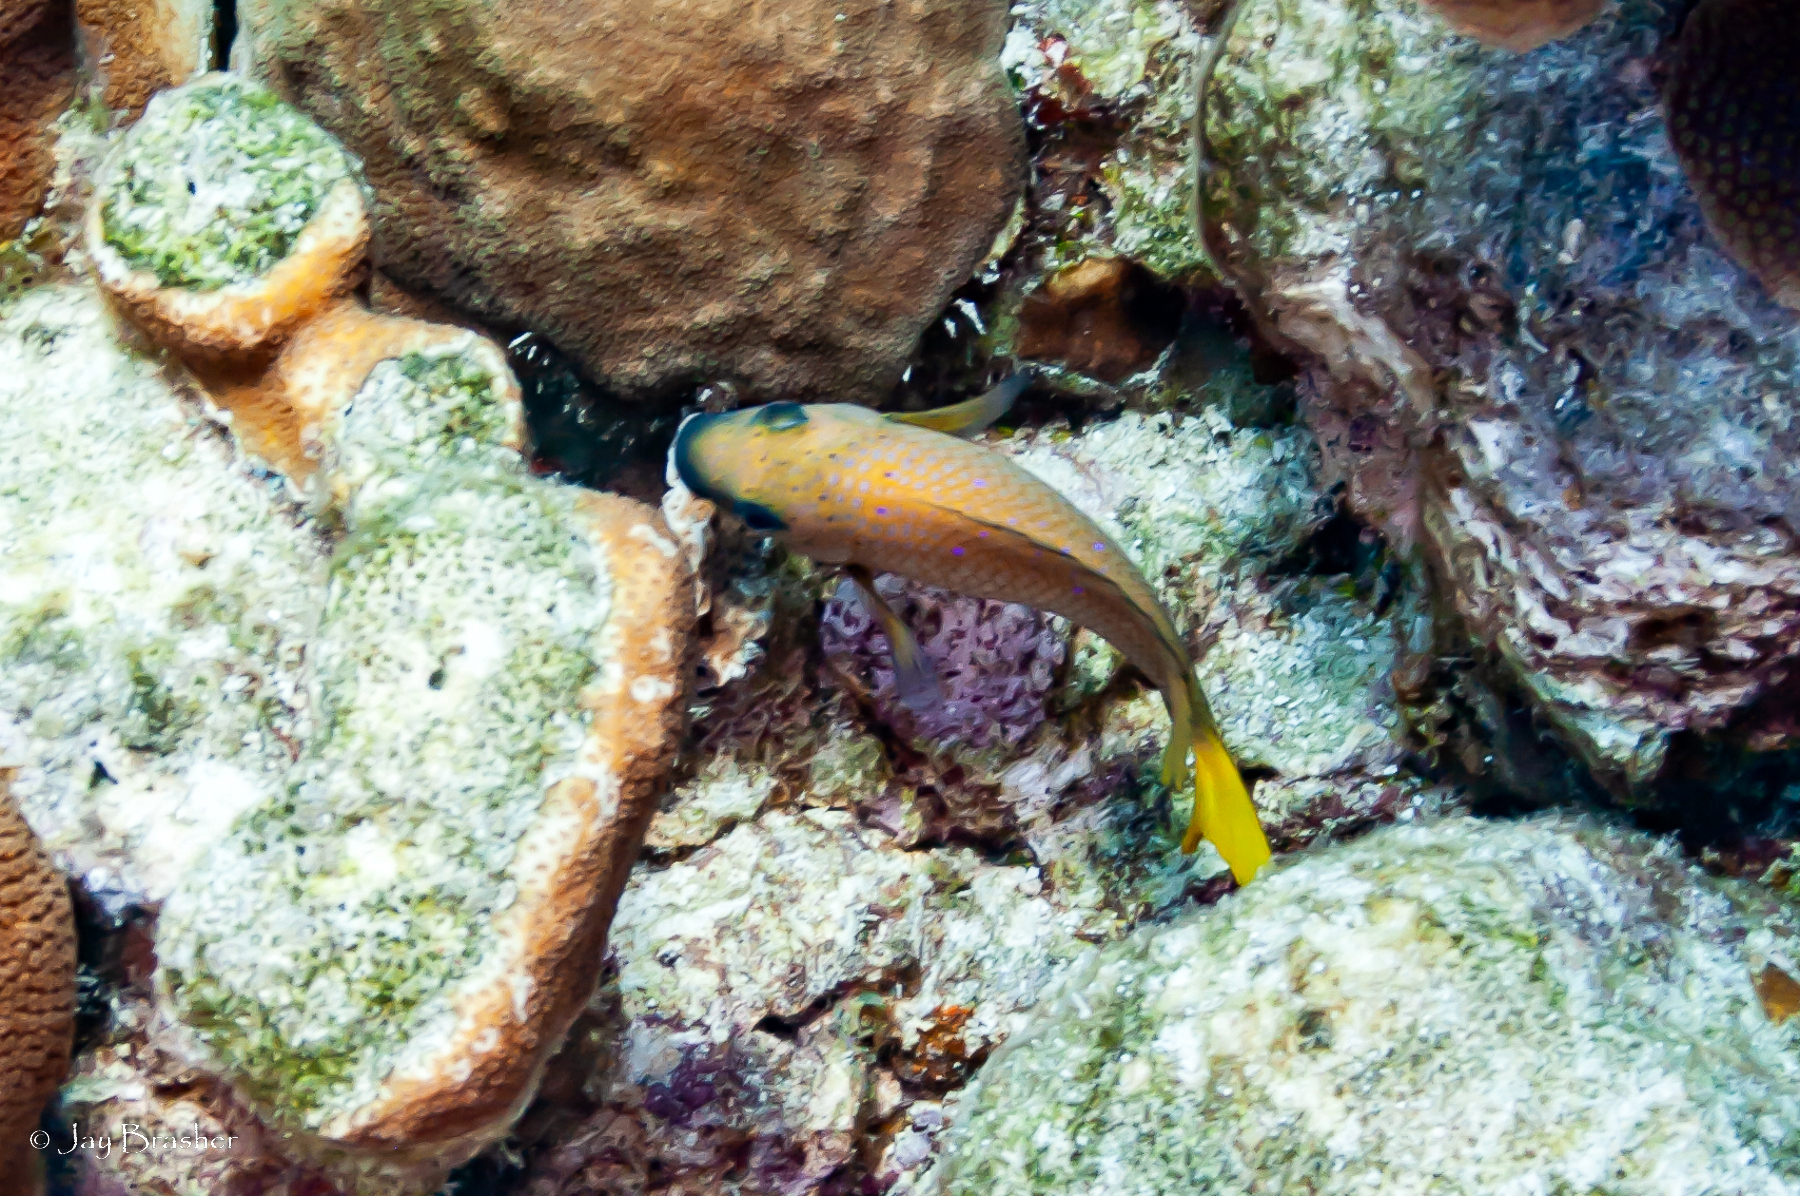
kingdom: Animalia
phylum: Chordata
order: Perciformes
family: Pomacentridae
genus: Microspathodon
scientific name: Microspathodon chrysurus
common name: Yellowtail damselfish
